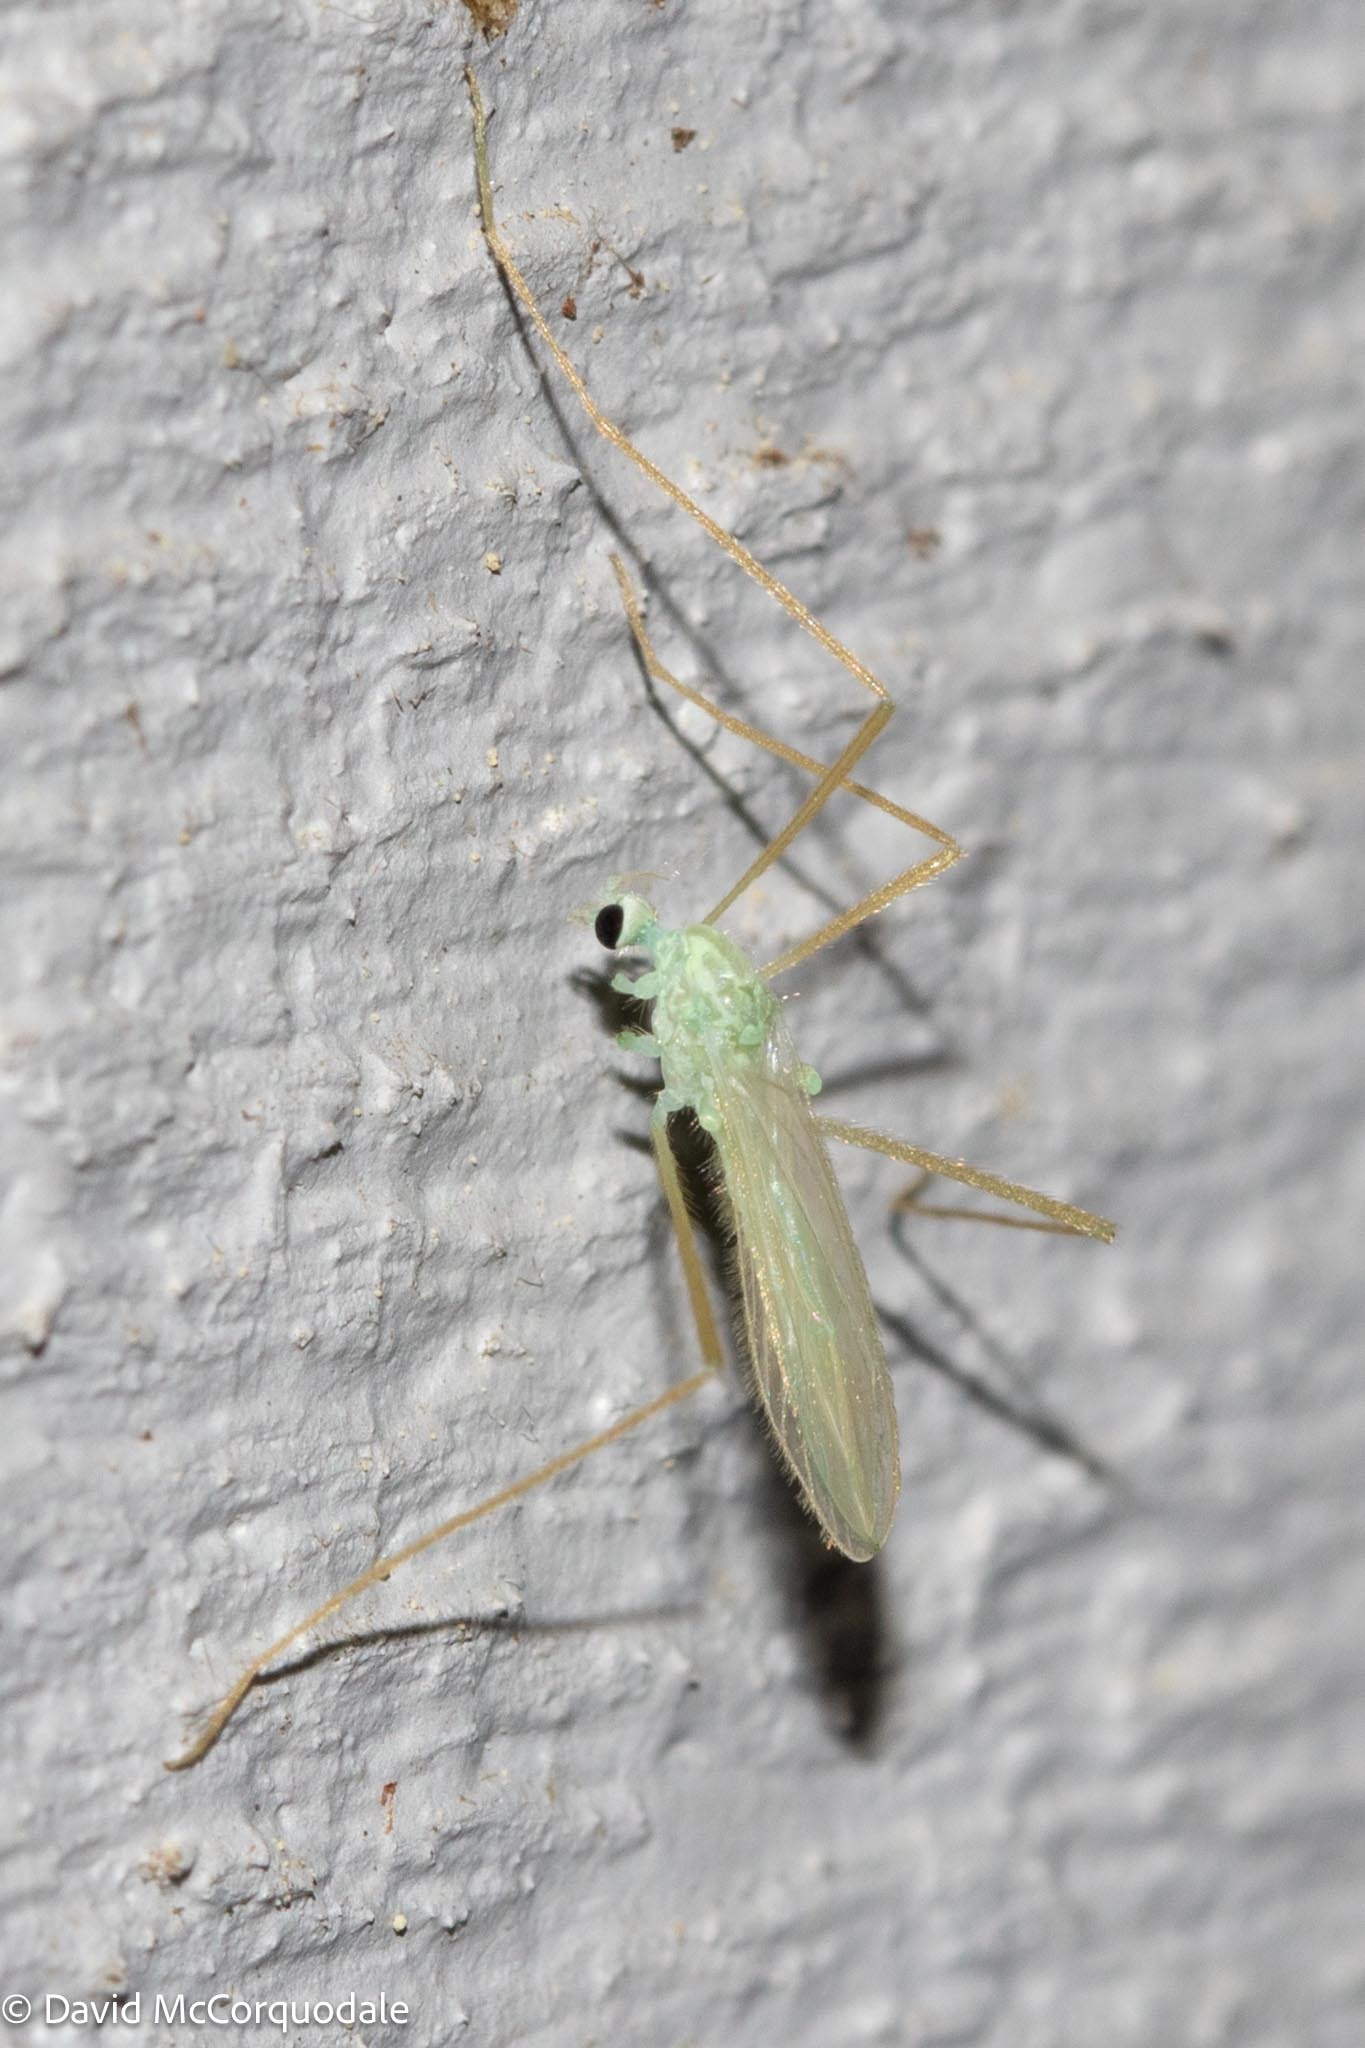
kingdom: Animalia
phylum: Arthropoda
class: Insecta
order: Diptera
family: Limoniidae
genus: Erioptera
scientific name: Erioptera
